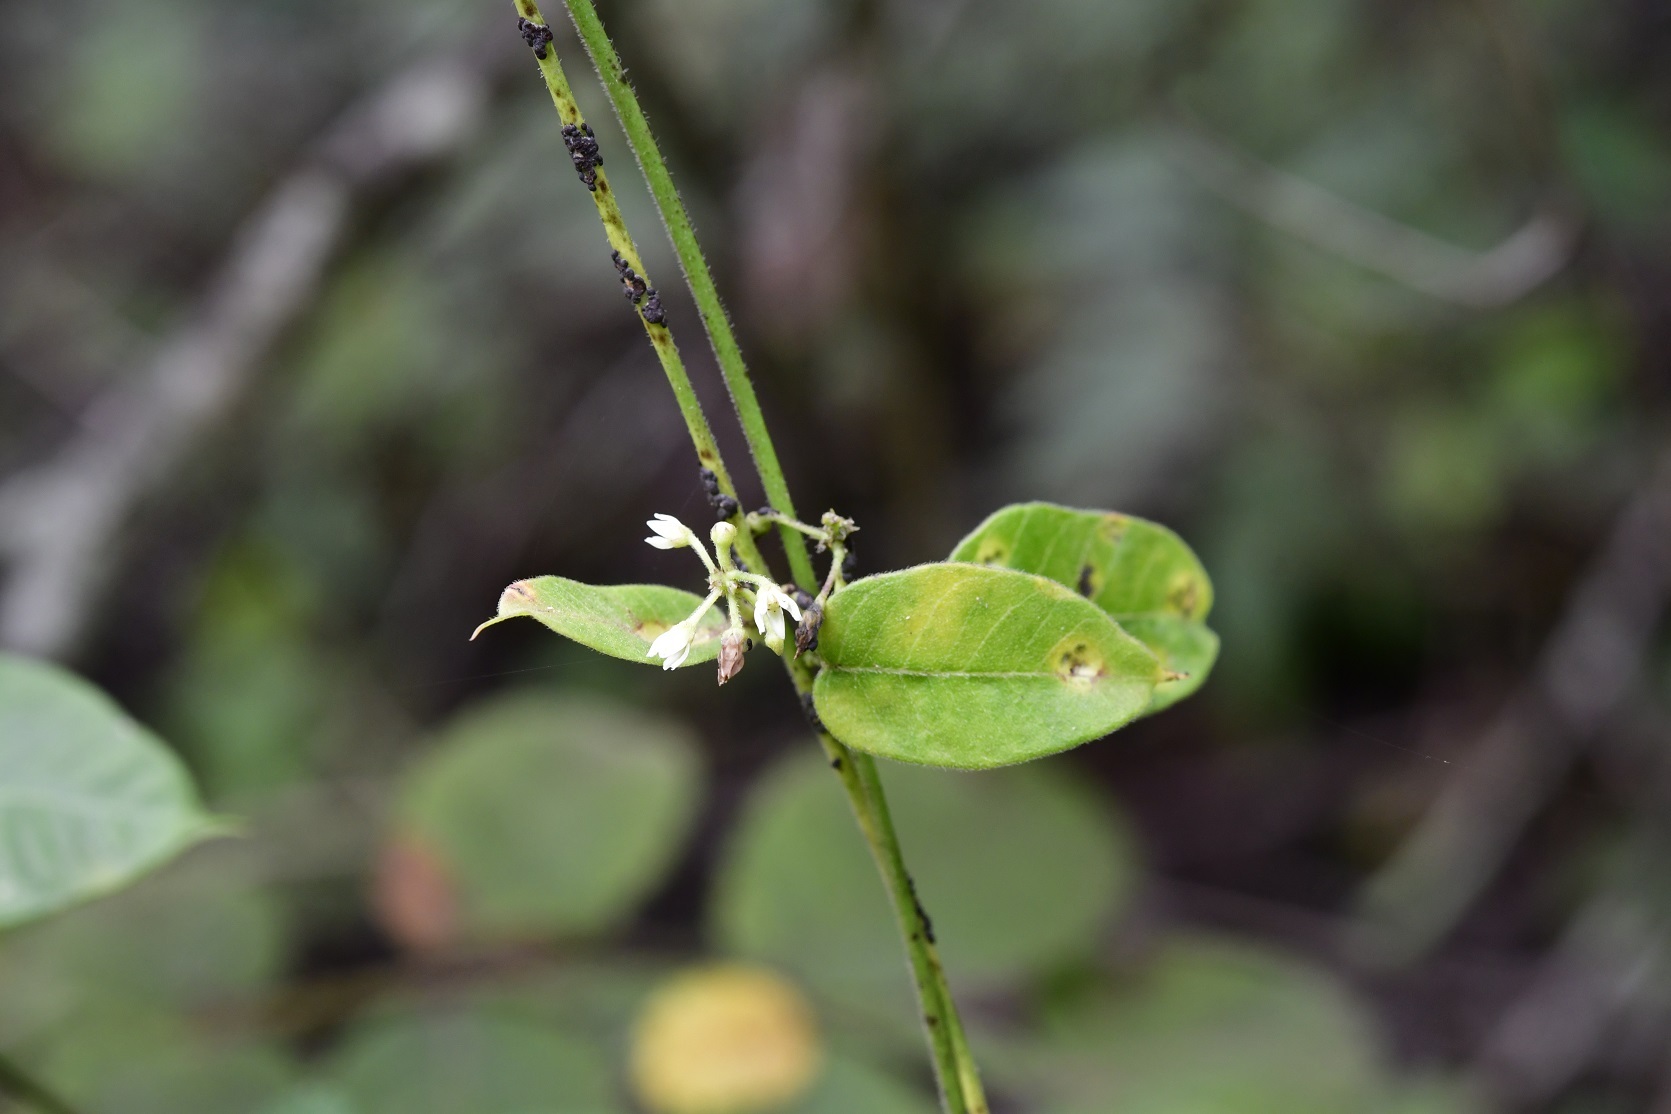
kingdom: Plantae
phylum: Tracheophyta
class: Magnoliopsida
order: Gentianales
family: Apocynaceae
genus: Metastelma
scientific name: Metastelma schlechtendalii
